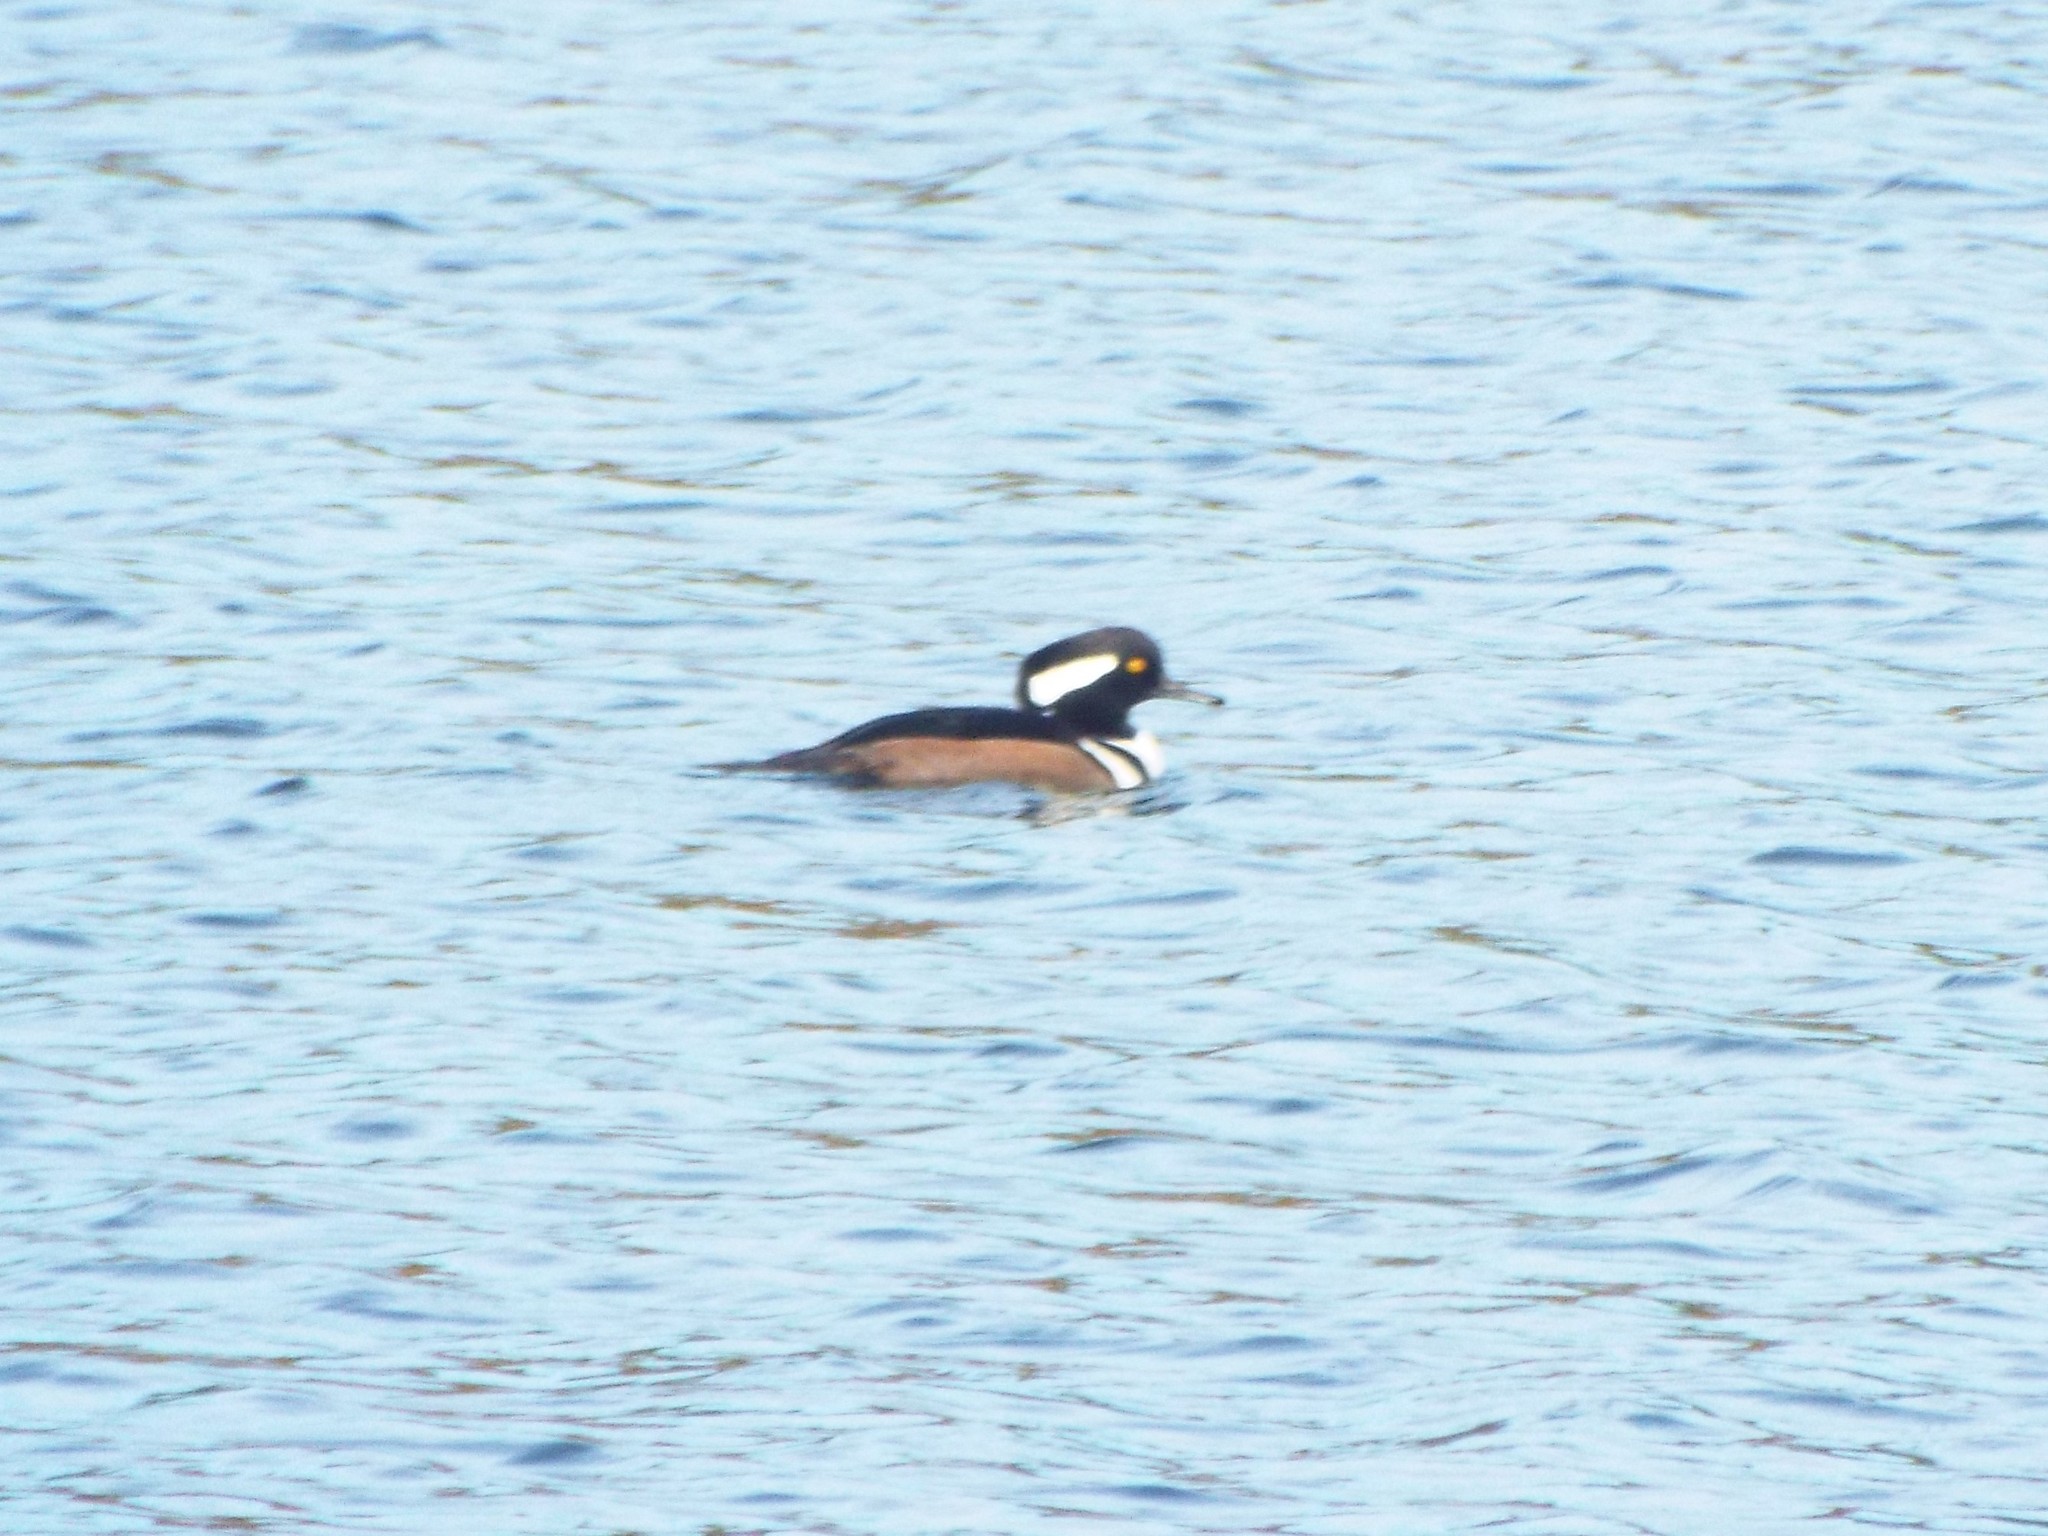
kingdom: Animalia
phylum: Chordata
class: Aves
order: Anseriformes
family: Anatidae
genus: Lophodytes
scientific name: Lophodytes cucullatus
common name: Hooded merganser
